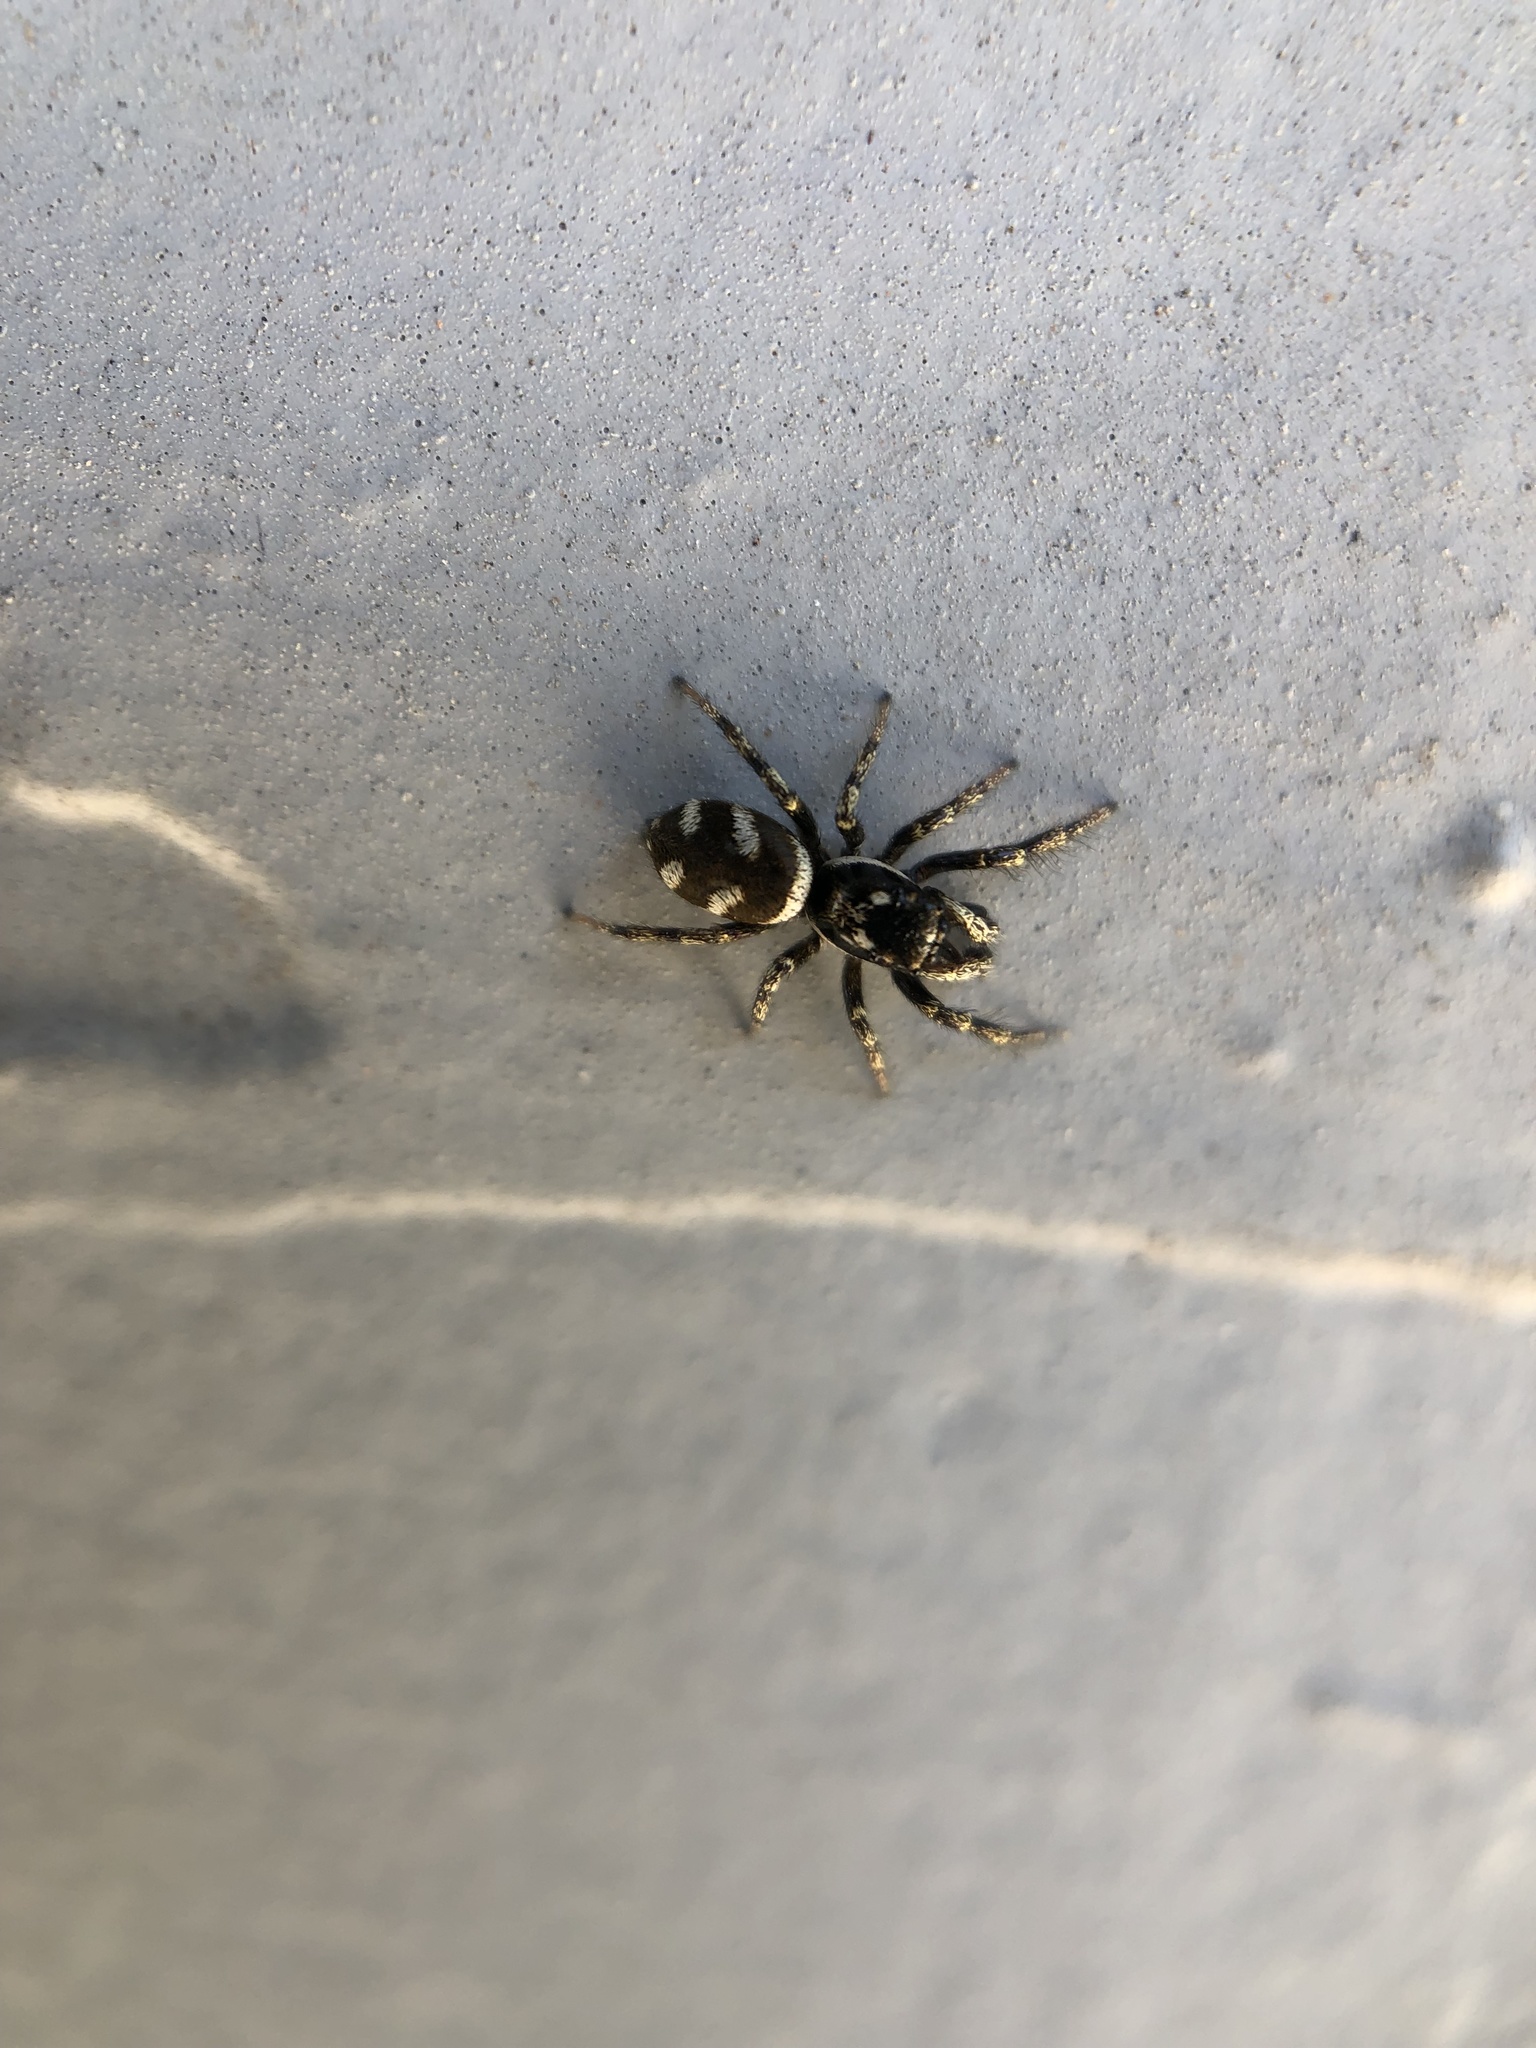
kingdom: Animalia
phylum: Arthropoda
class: Arachnida
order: Araneae
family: Salticidae
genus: Salticus
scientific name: Salticus scenicus
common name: Zebra jumper
